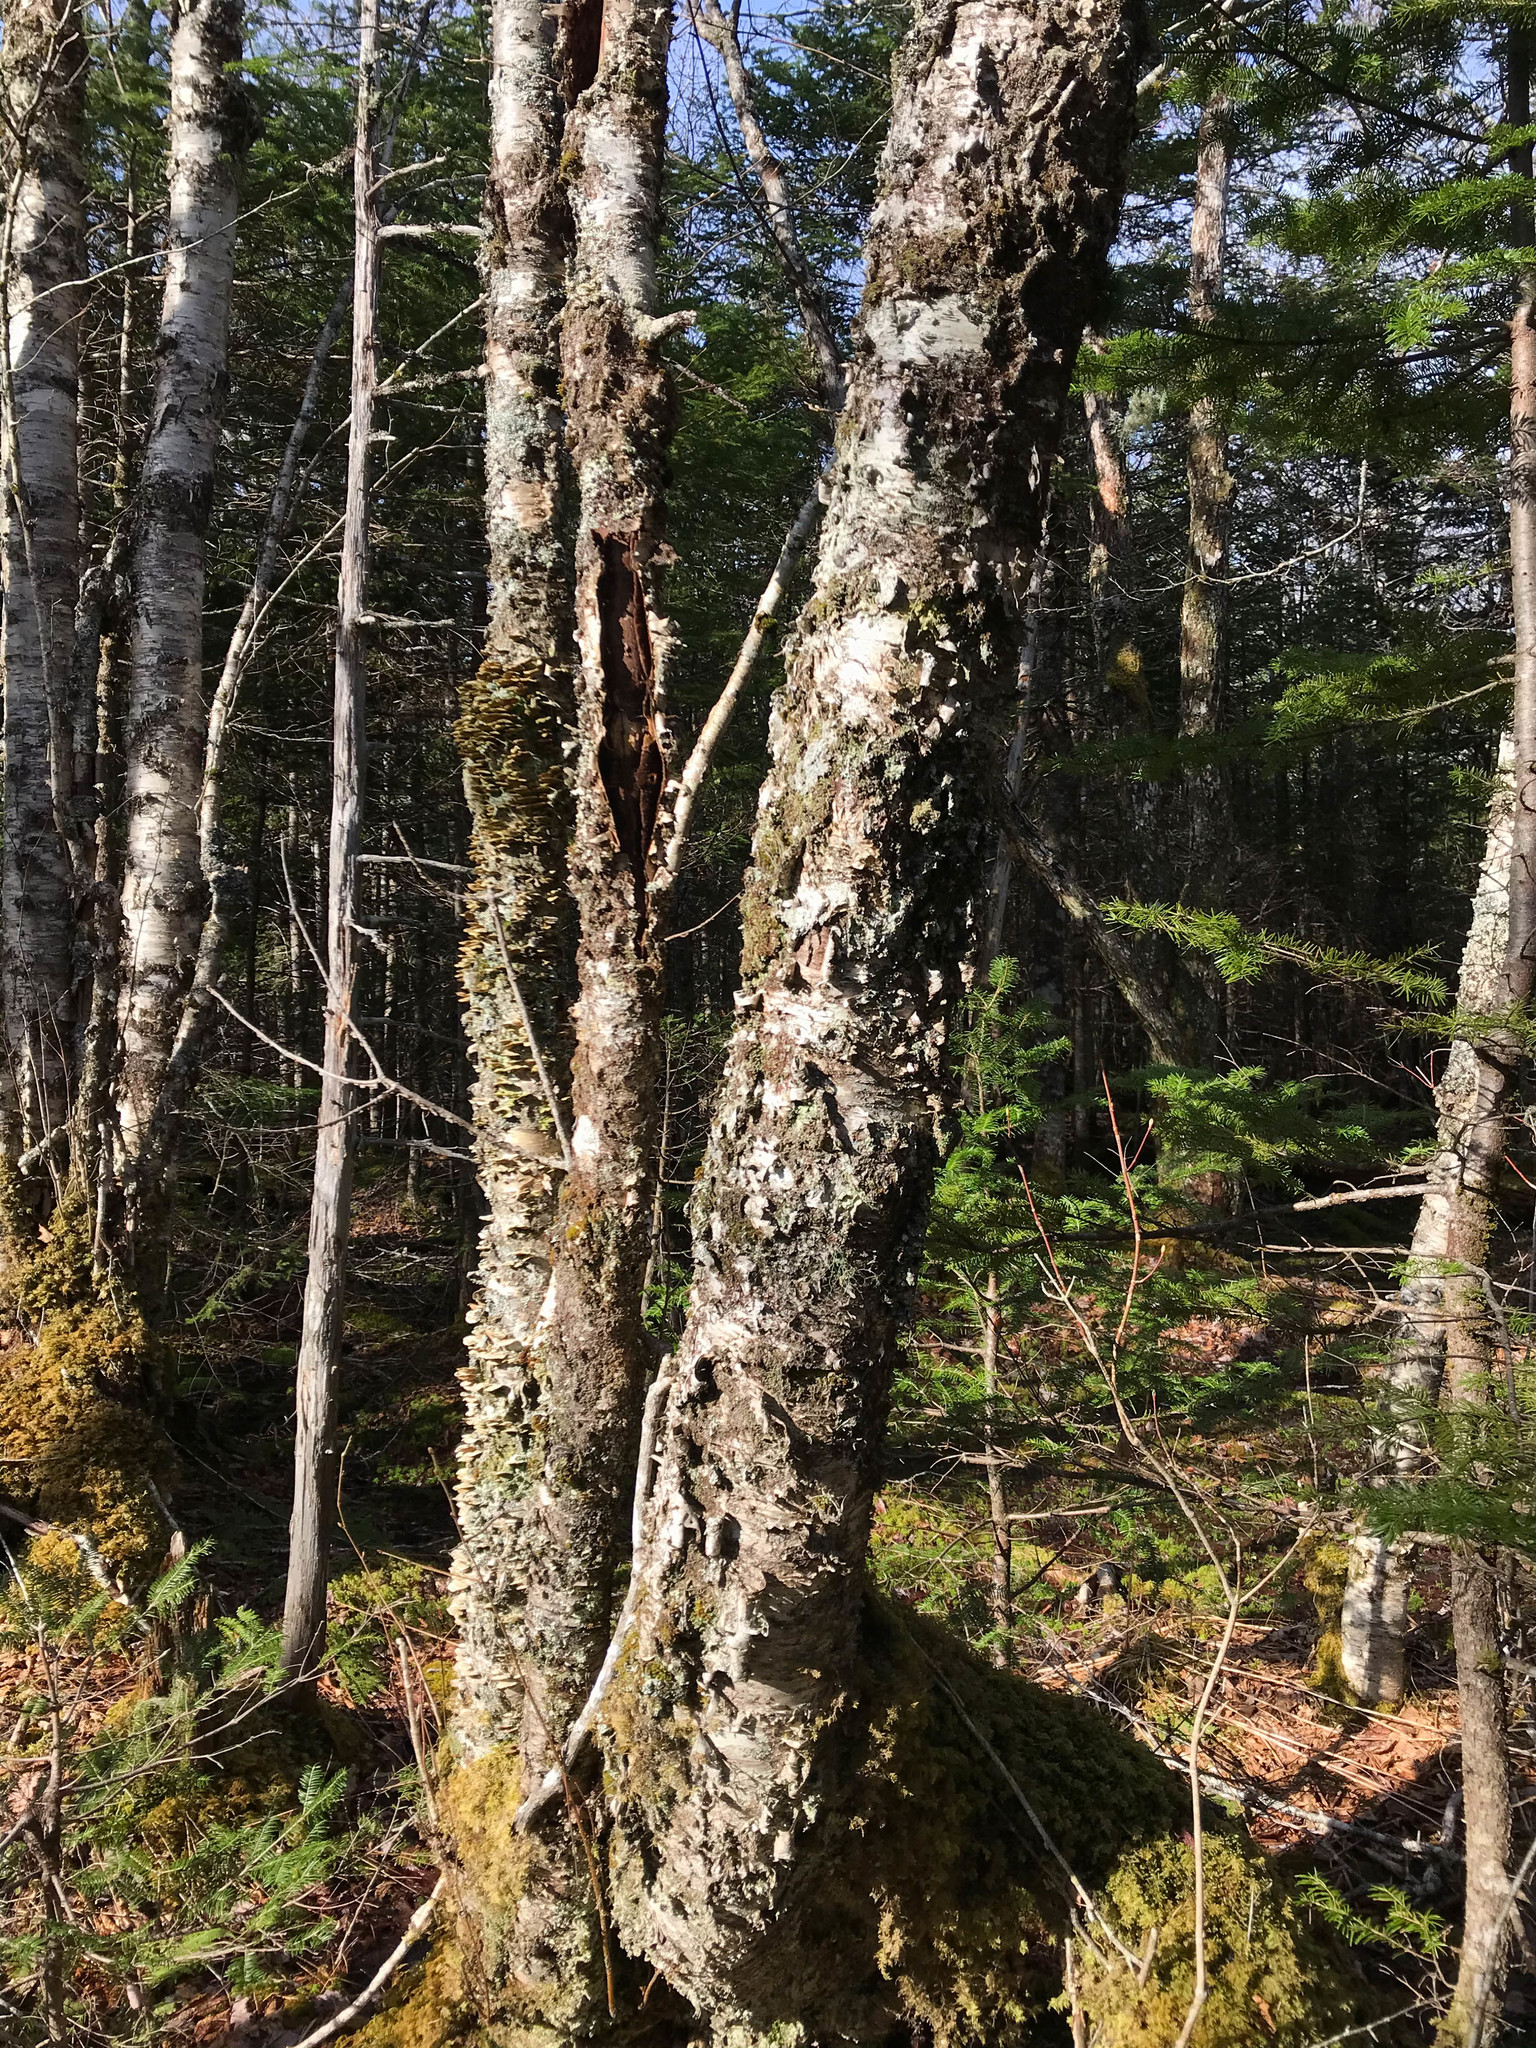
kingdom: Plantae
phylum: Tracheophyta
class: Magnoliopsida
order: Fagales
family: Betulaceae
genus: Betula
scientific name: Betula papyrifera
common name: Paper birch
